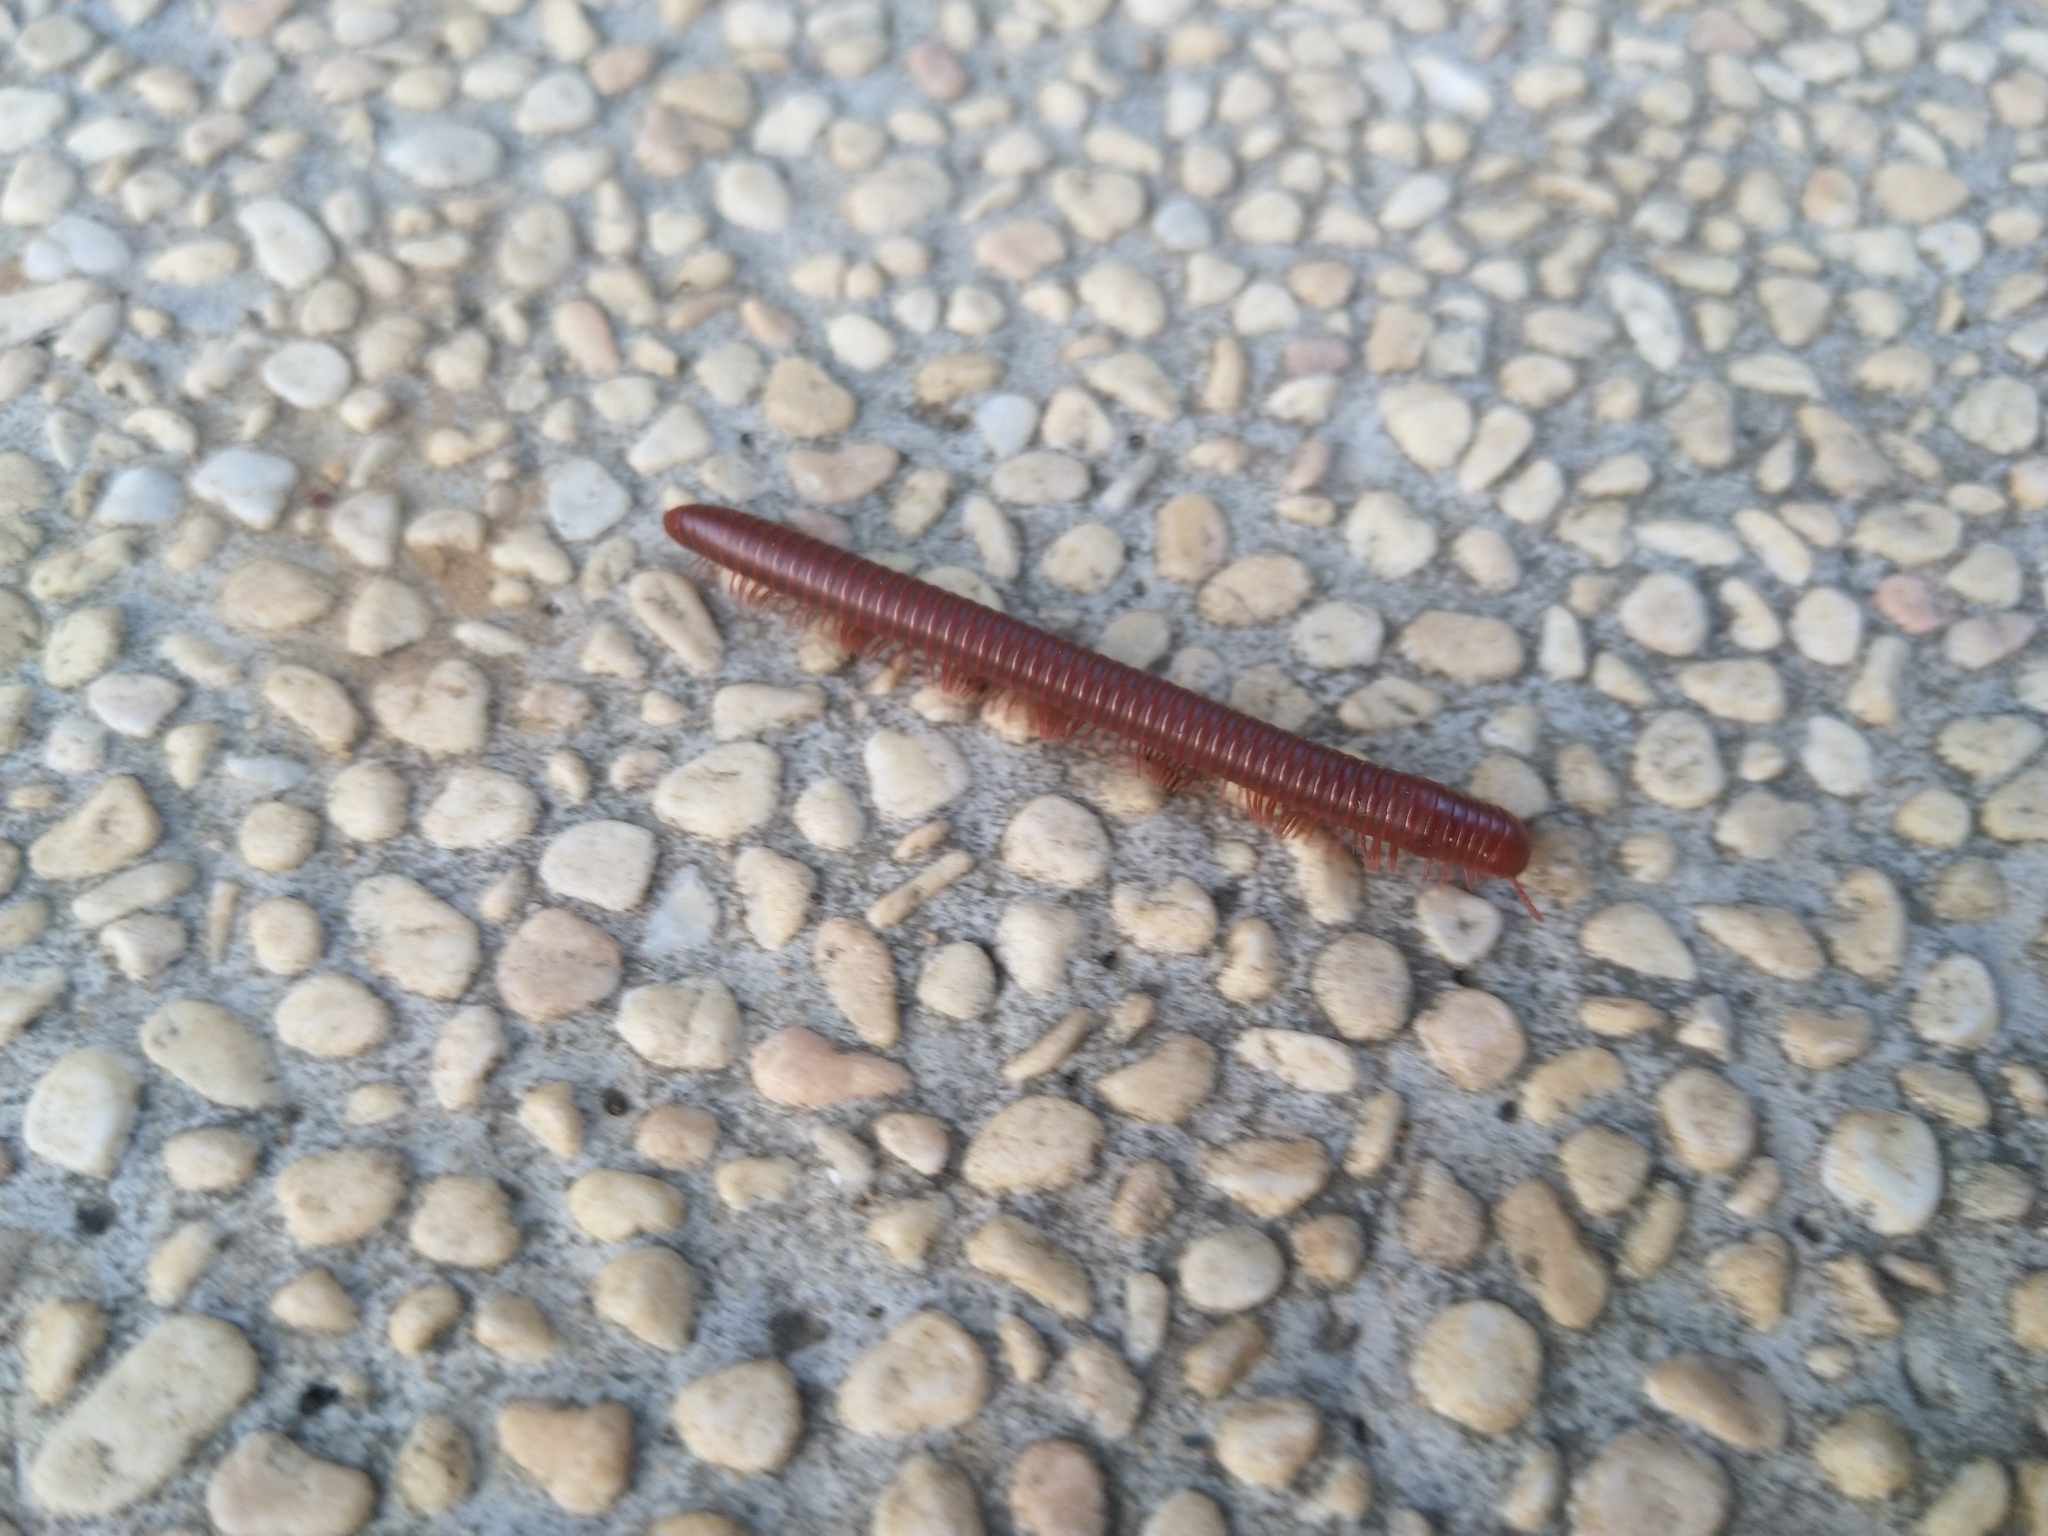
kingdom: Animalia
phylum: Arthropoda
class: Diplopoda
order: Spirobolida
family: Pachybolidae
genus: Trigoniulus
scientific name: Trigoniulus corallinus
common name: Millipede
